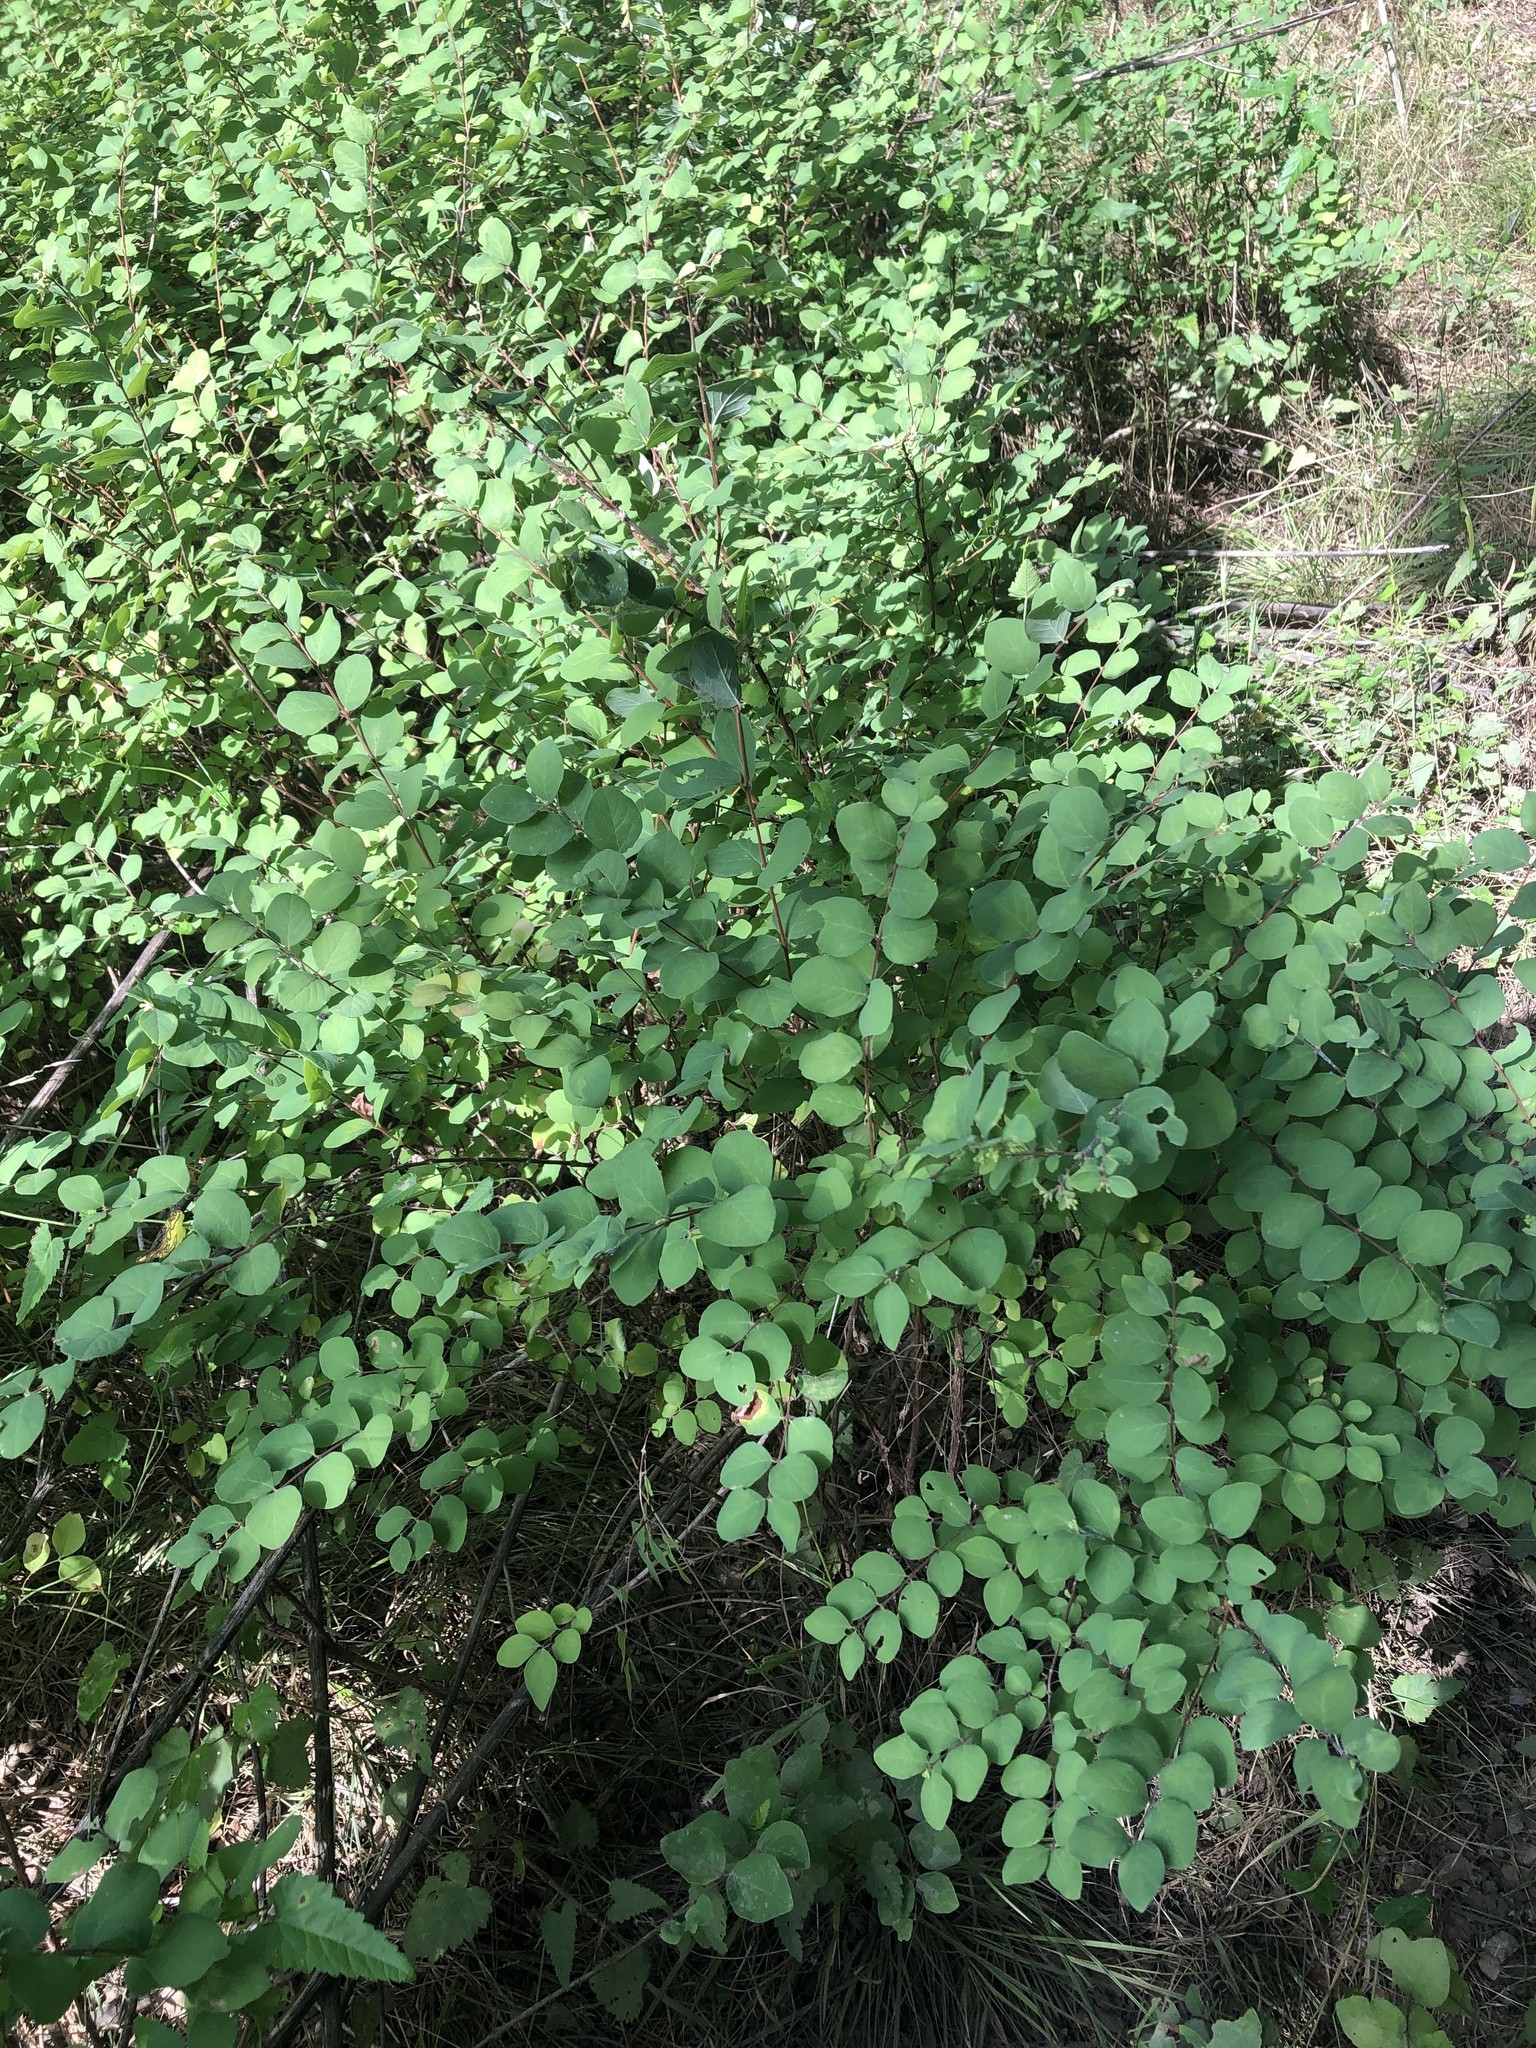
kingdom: Plantae
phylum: Tracheophyta
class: Magnoliopsida
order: Dipsacales
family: Caprifoliaceae
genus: Symphoricarpos
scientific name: Symphoricarpos orbiculatus
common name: Coralberry
